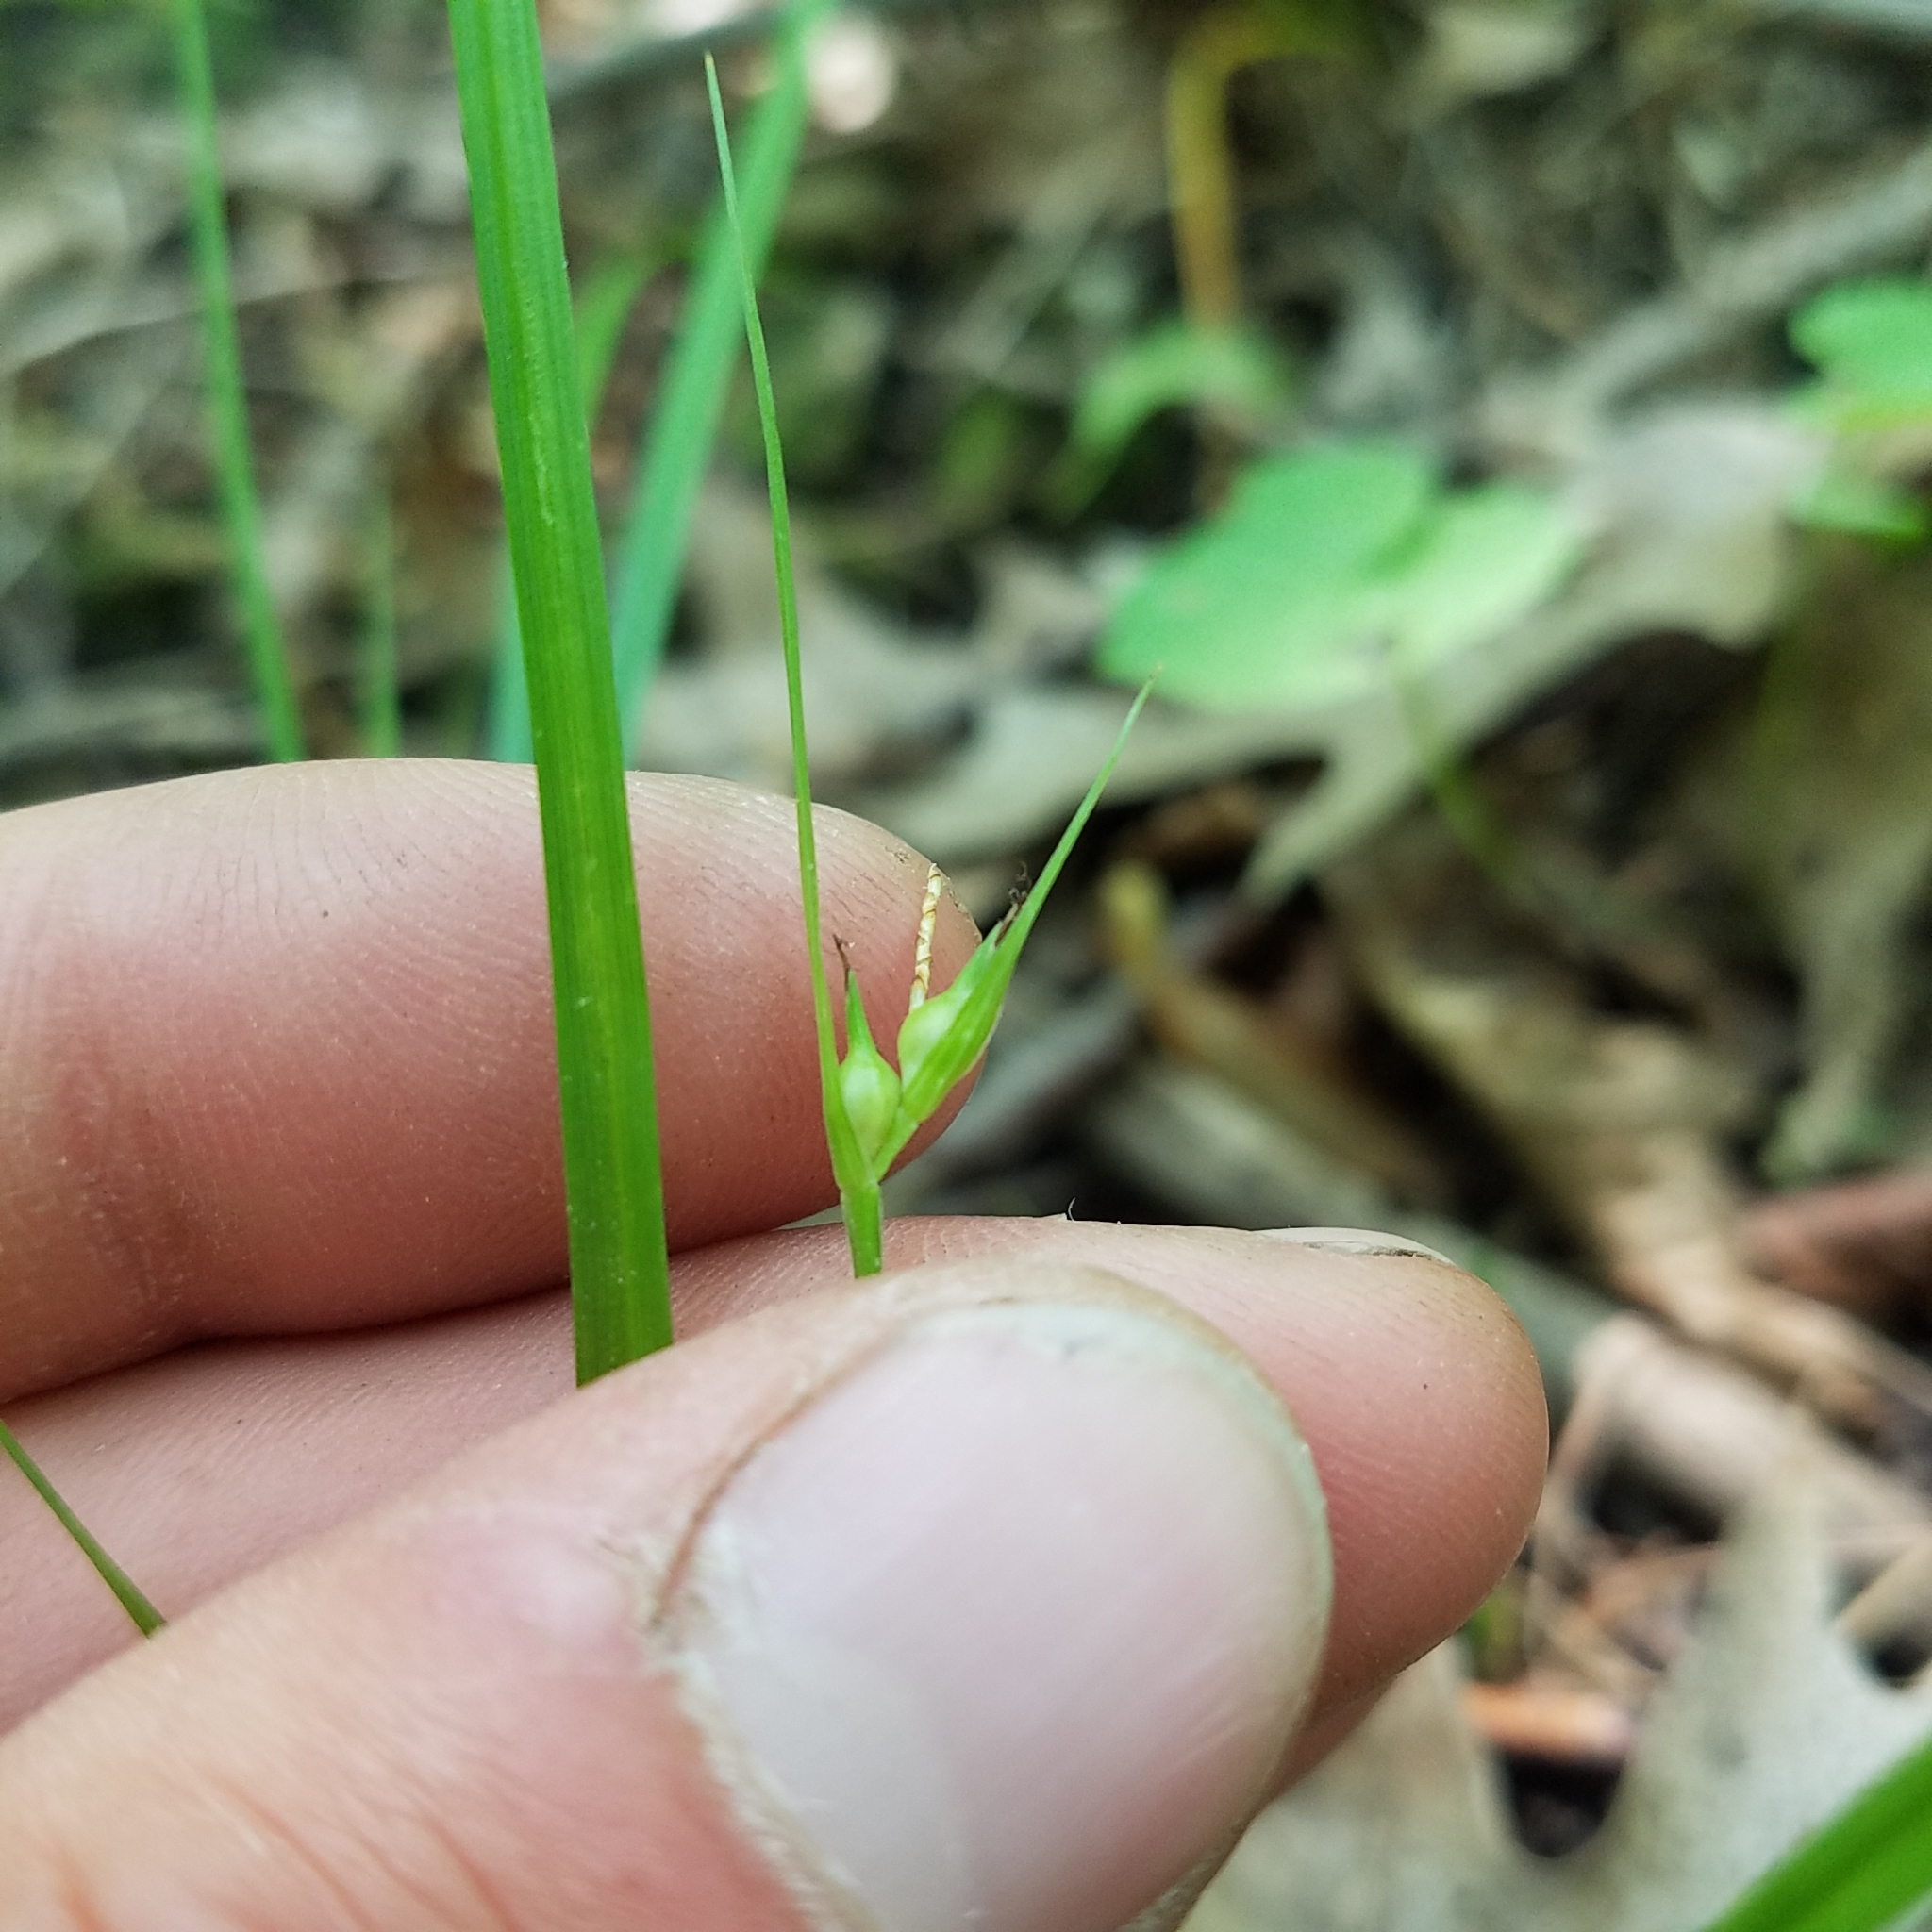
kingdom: Plantae
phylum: Tracheophyta
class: Liliopsida
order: Poales
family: Cyperaceae
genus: Carex
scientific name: Carex jamesii
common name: Grass sedge
